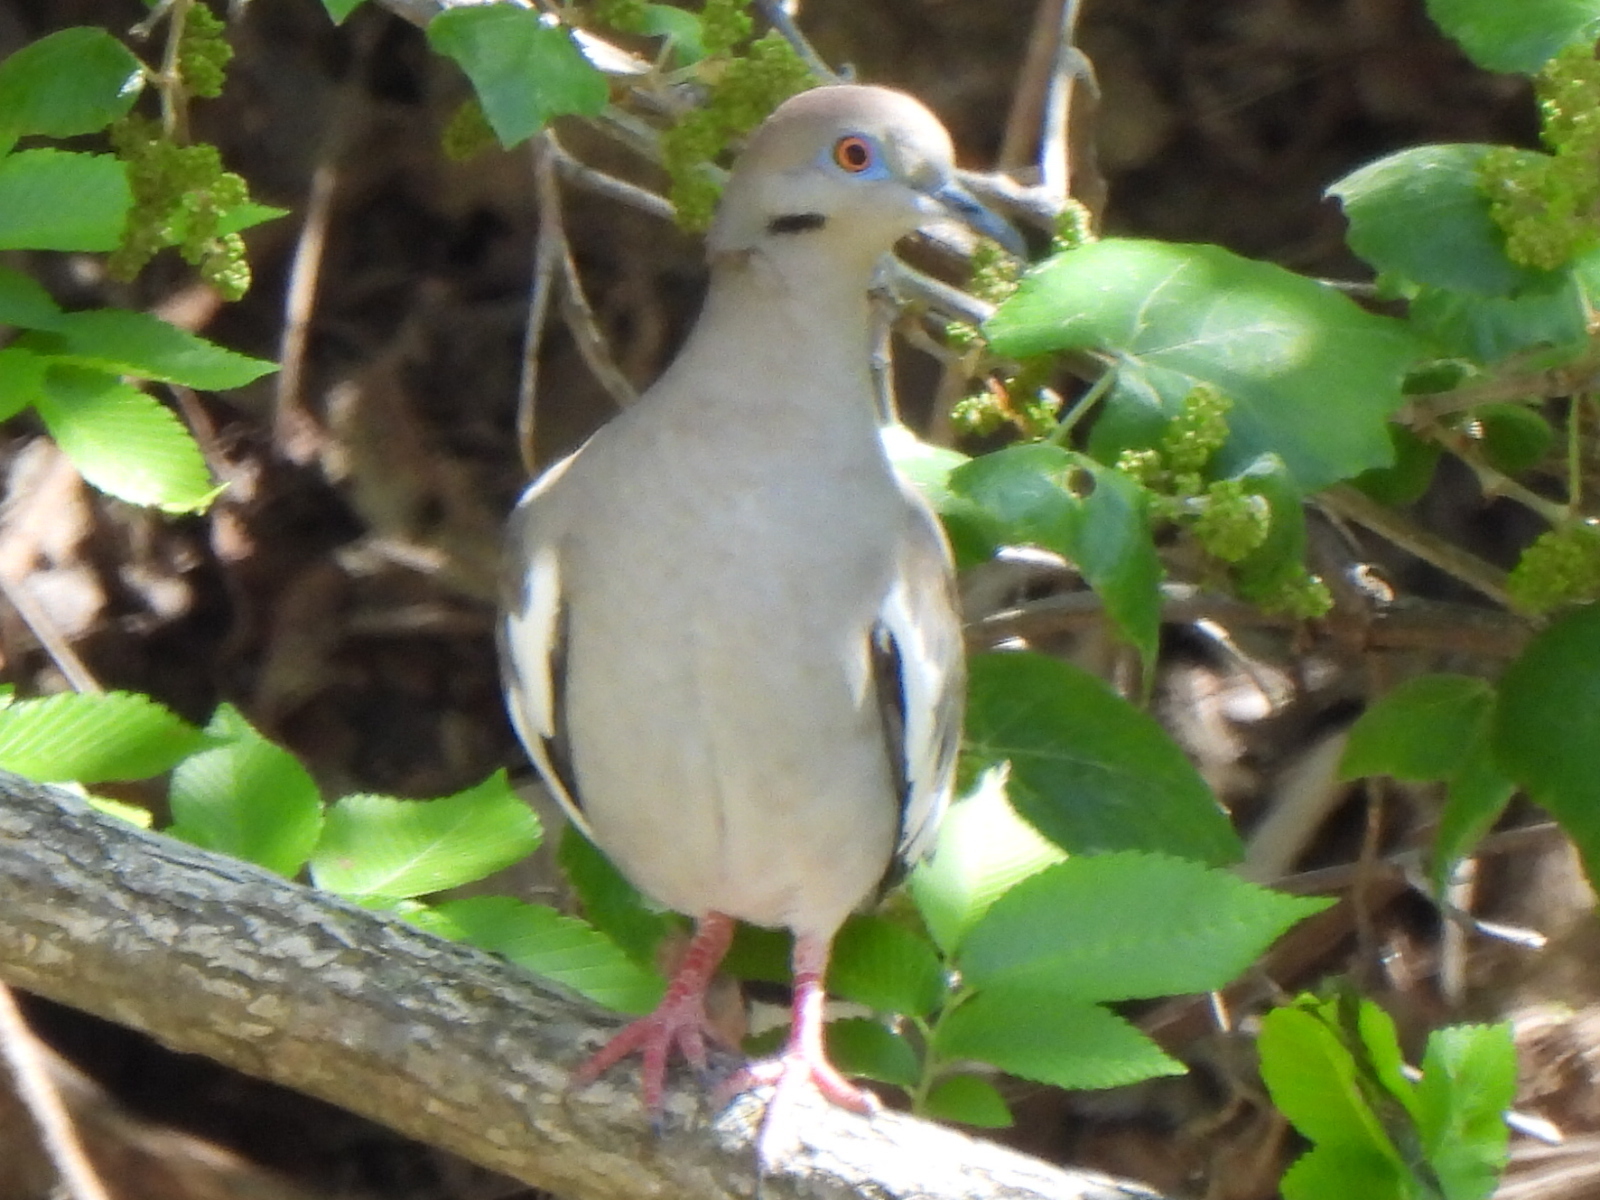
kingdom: Animalia
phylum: Chordata
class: Aves
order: Columbiformes
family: Columbidae
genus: Zenaida
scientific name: Zenaida asiatica
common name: White-winged dove
